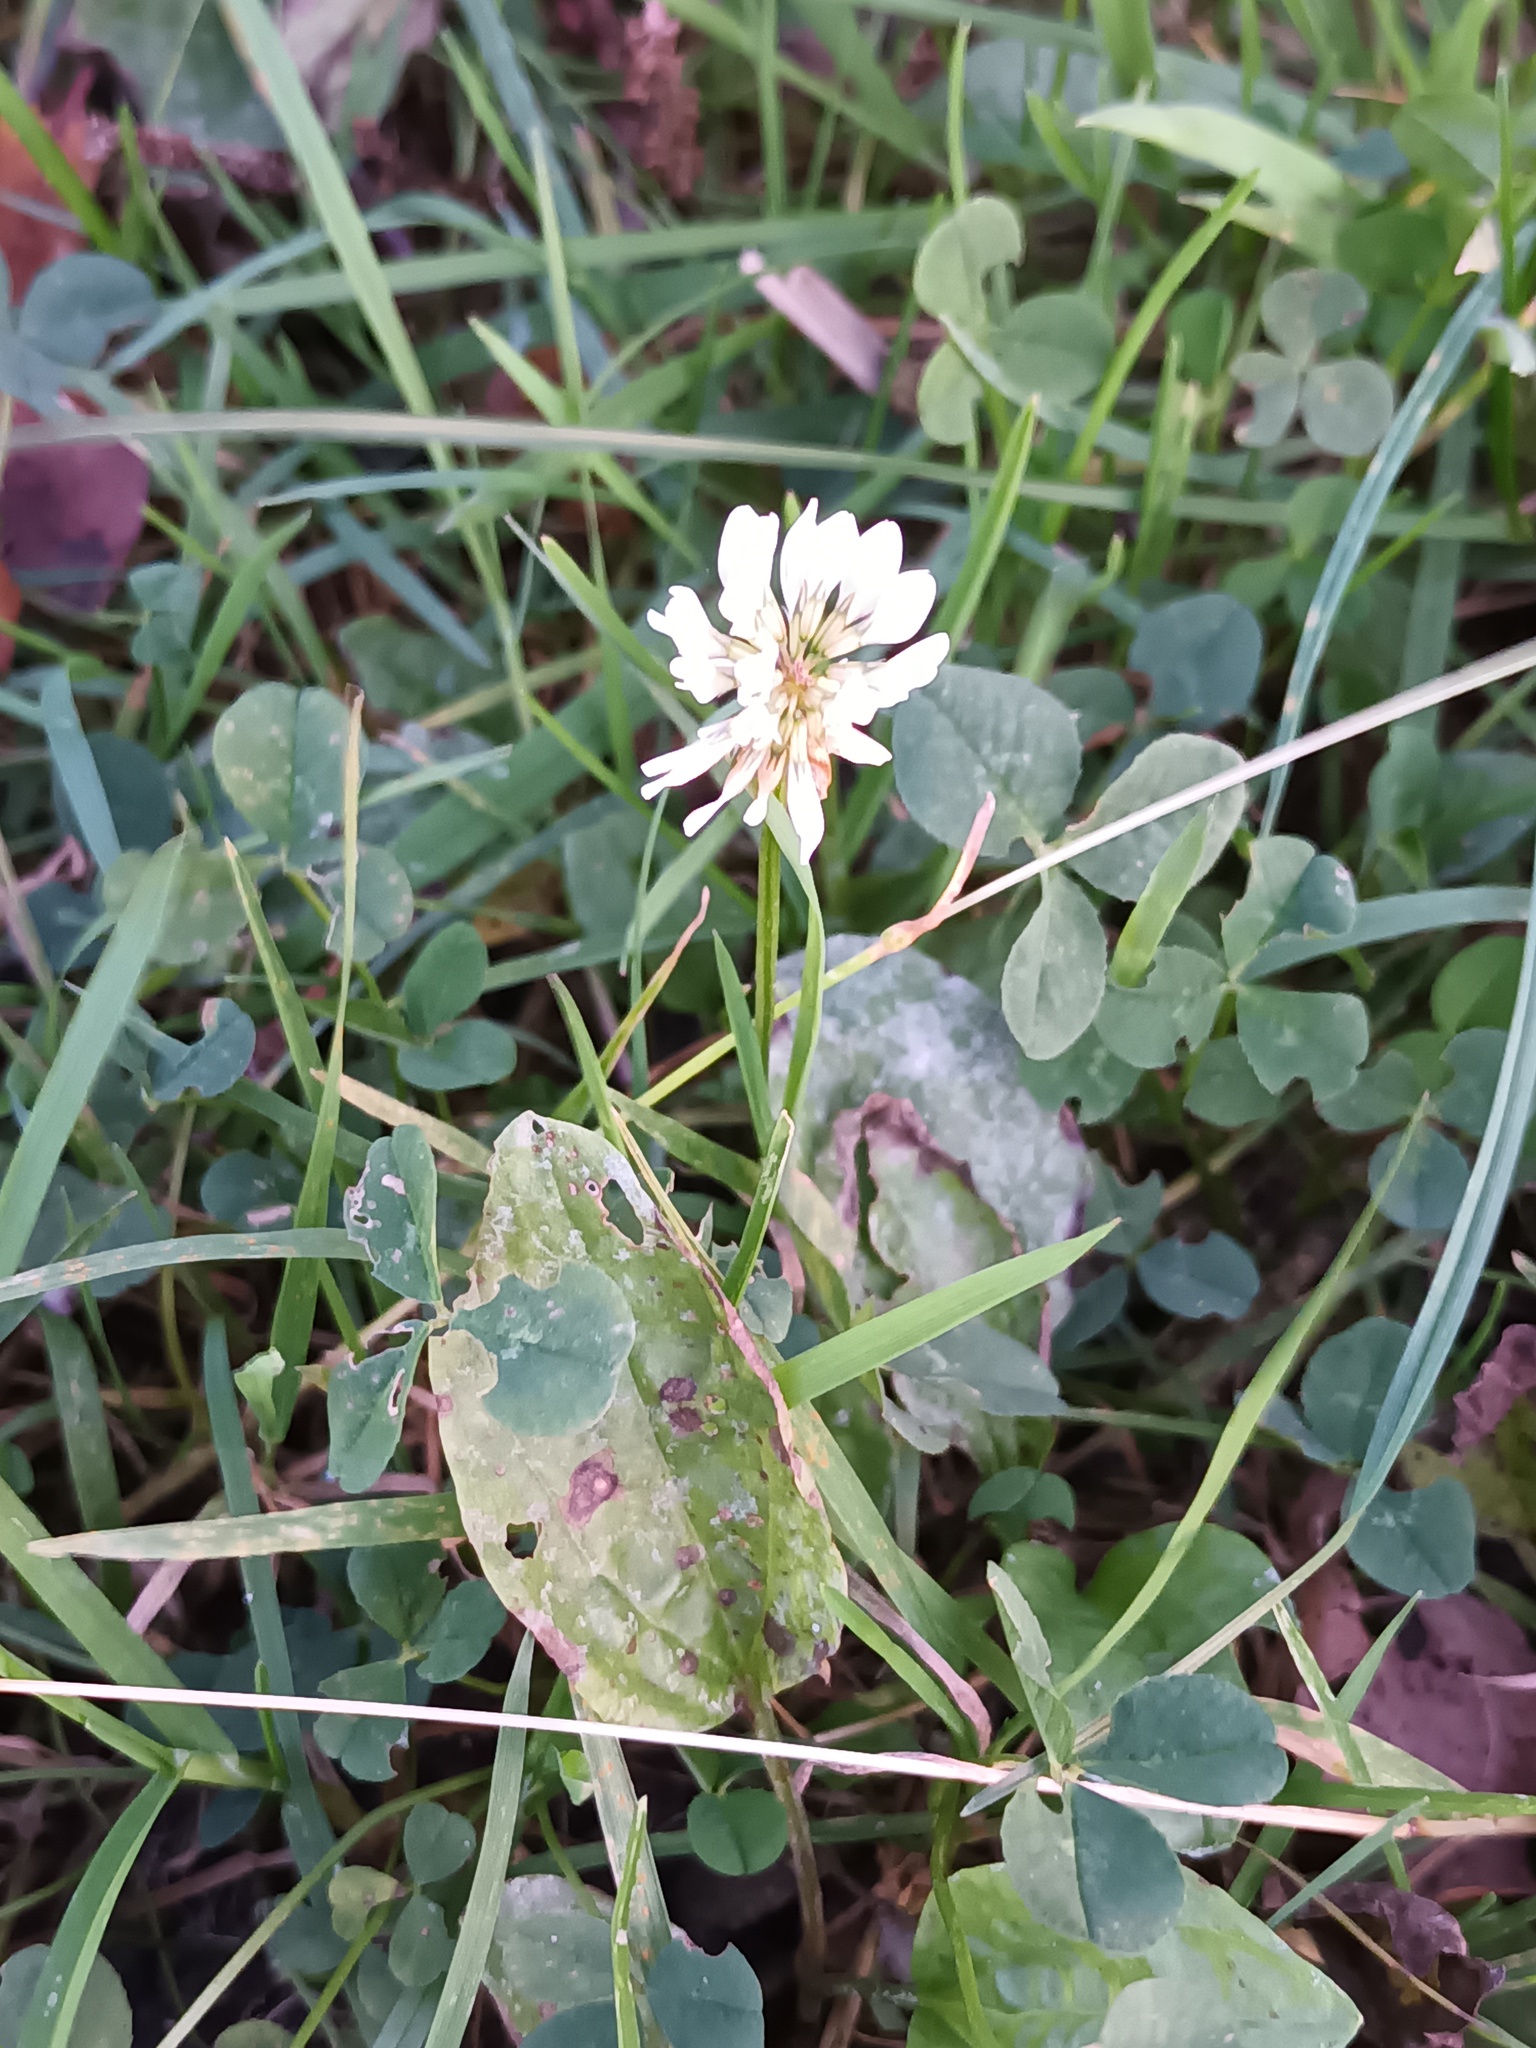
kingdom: Plantae
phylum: Tracheophyta
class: Magnoliopsida
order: Fabales
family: Fabaceae
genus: Trifolium
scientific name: Trifolium repens
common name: White clover
